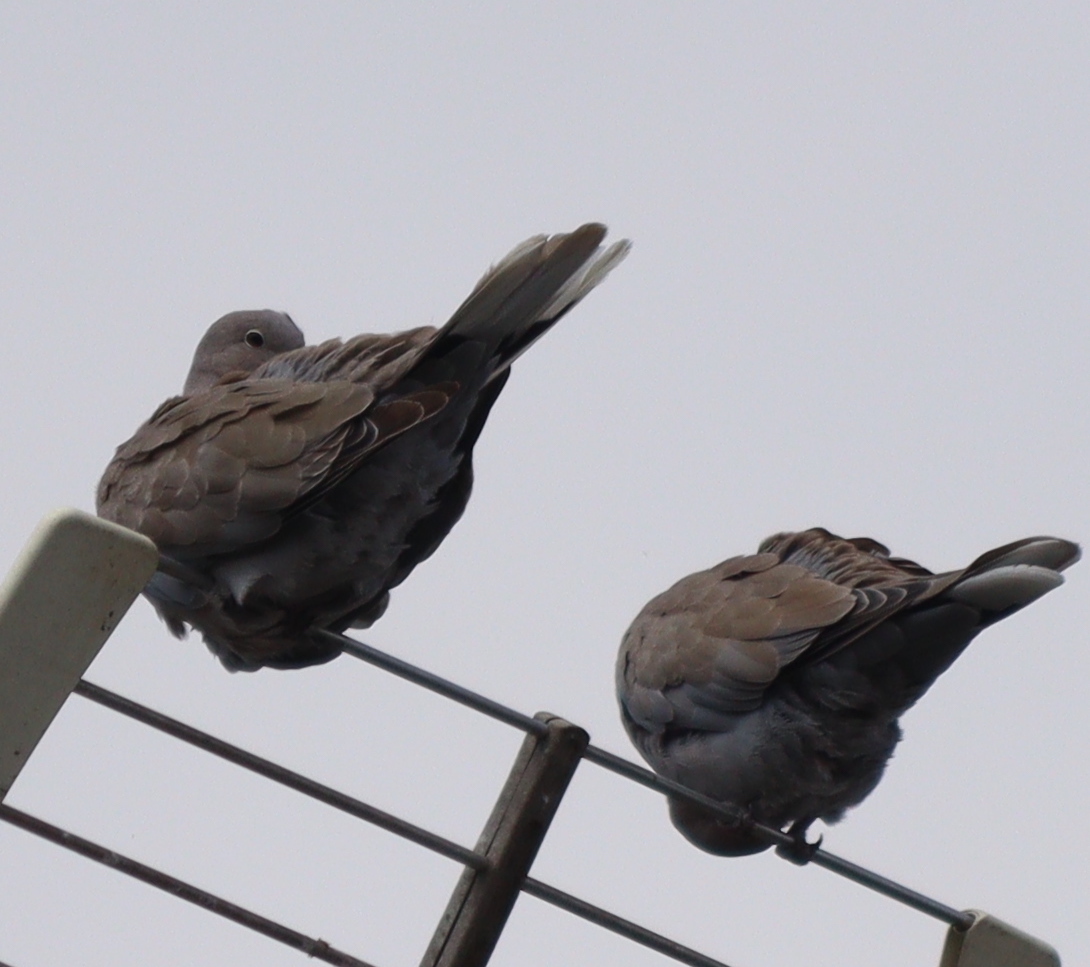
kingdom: Animalia
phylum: Chordata
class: Aves
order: Columbiformes
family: Columbidae
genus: Streptopelia
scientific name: Streptopelia decaocto
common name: Eurasian collared dove
